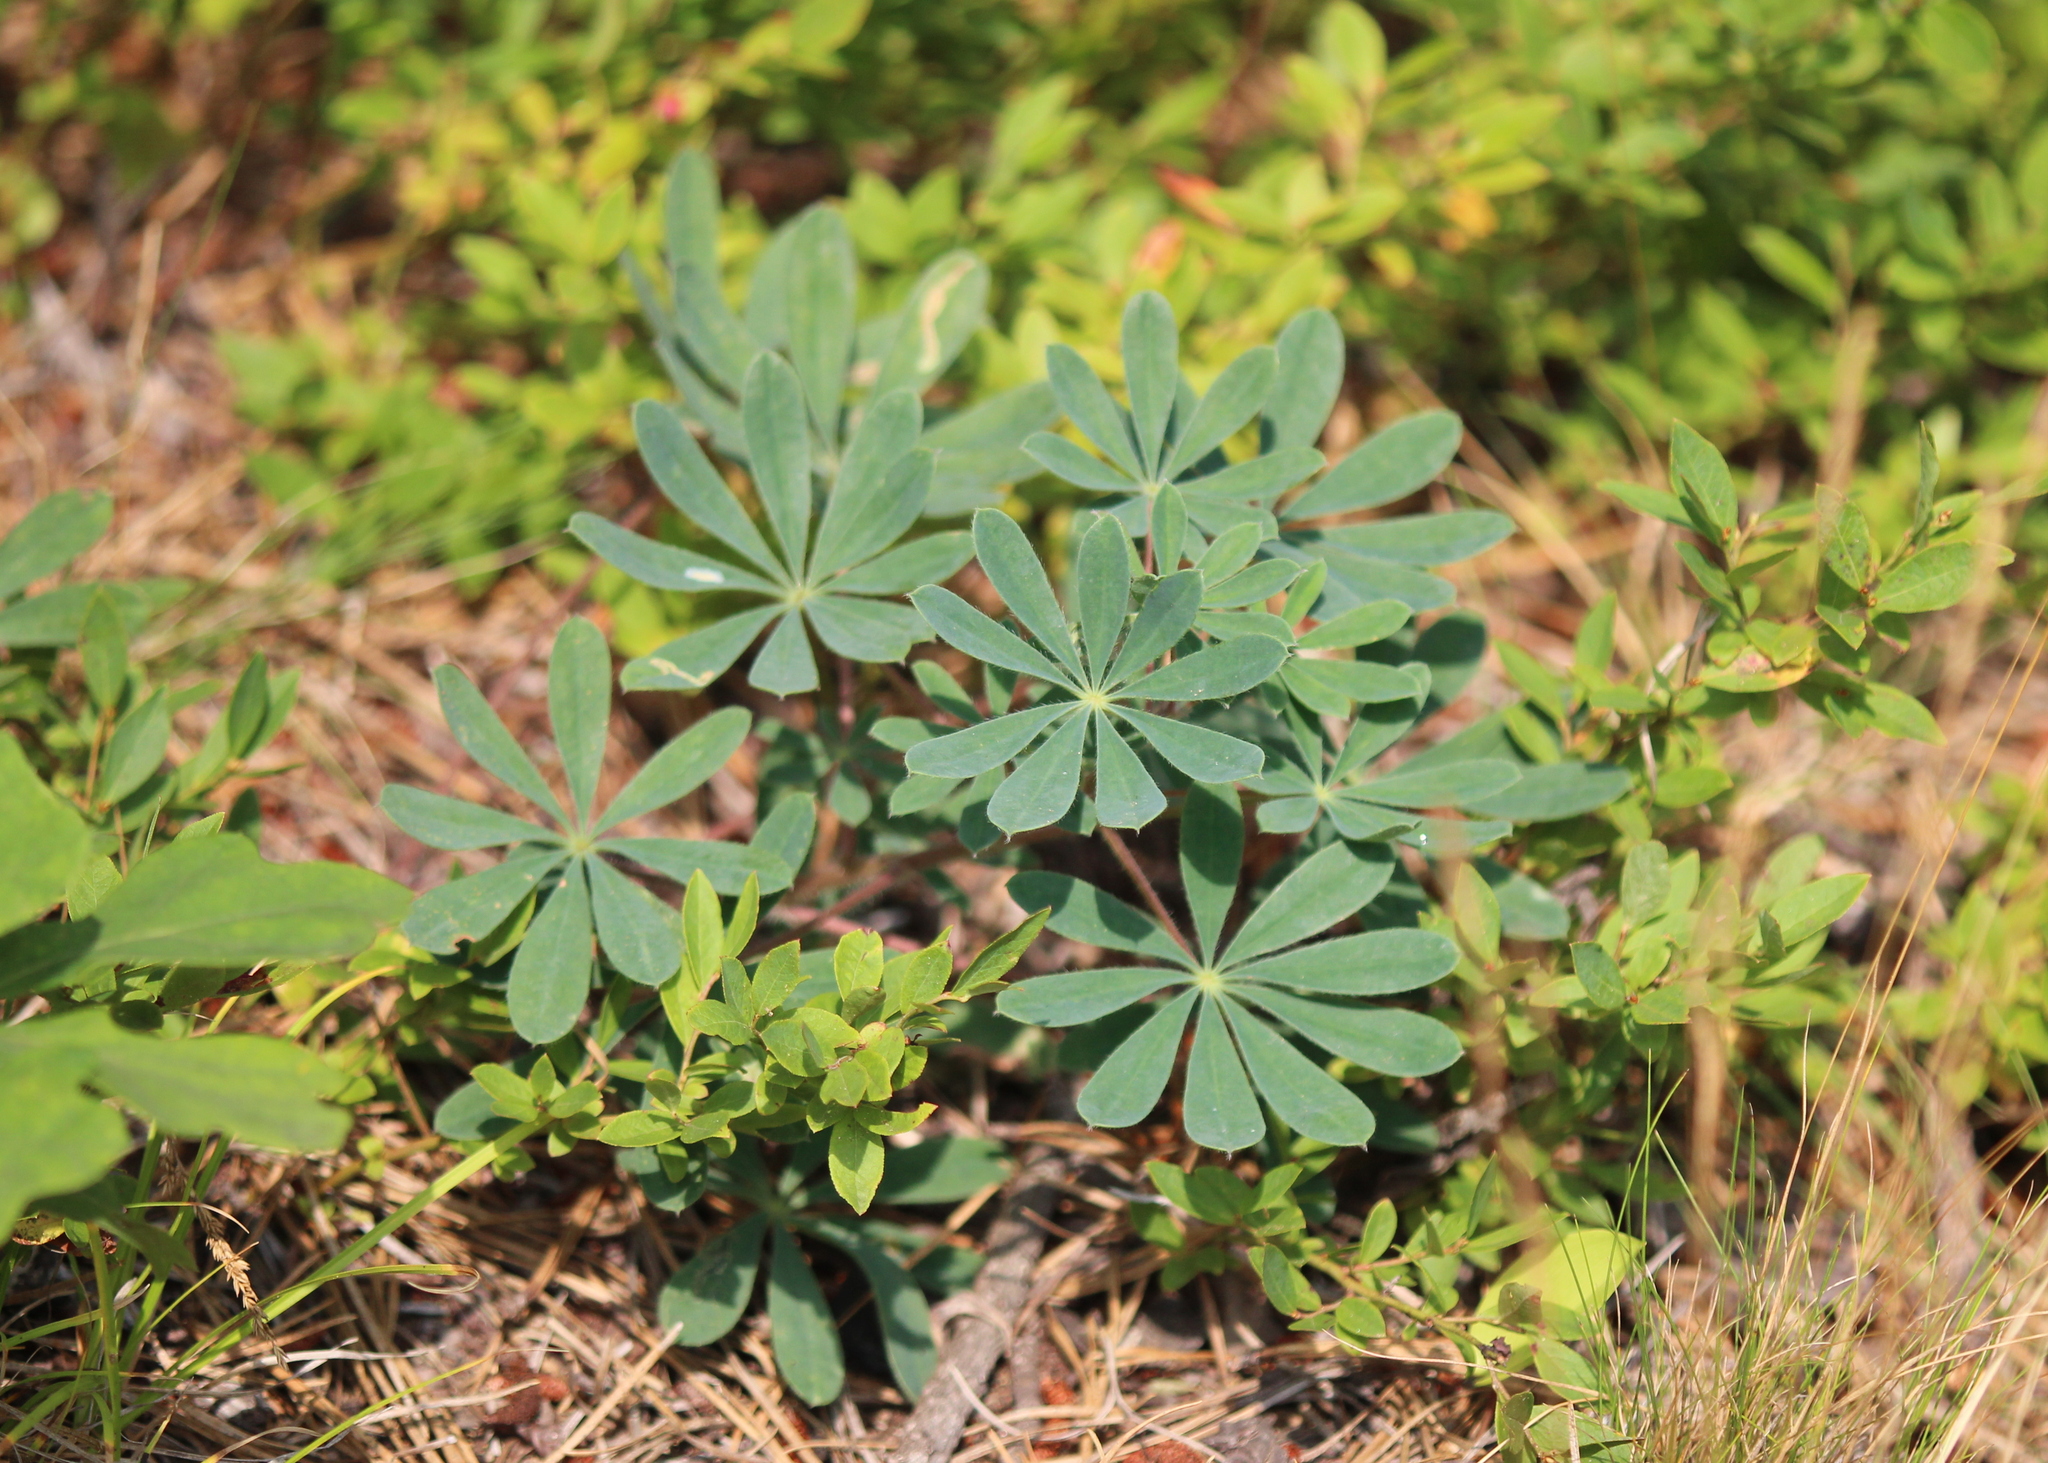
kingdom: Plantae
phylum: Tracheophyta
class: Magnoliopsida
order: Fabales
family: Fabaceae
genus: Lupinus
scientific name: Lupinus perennis
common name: Sundial lupine
